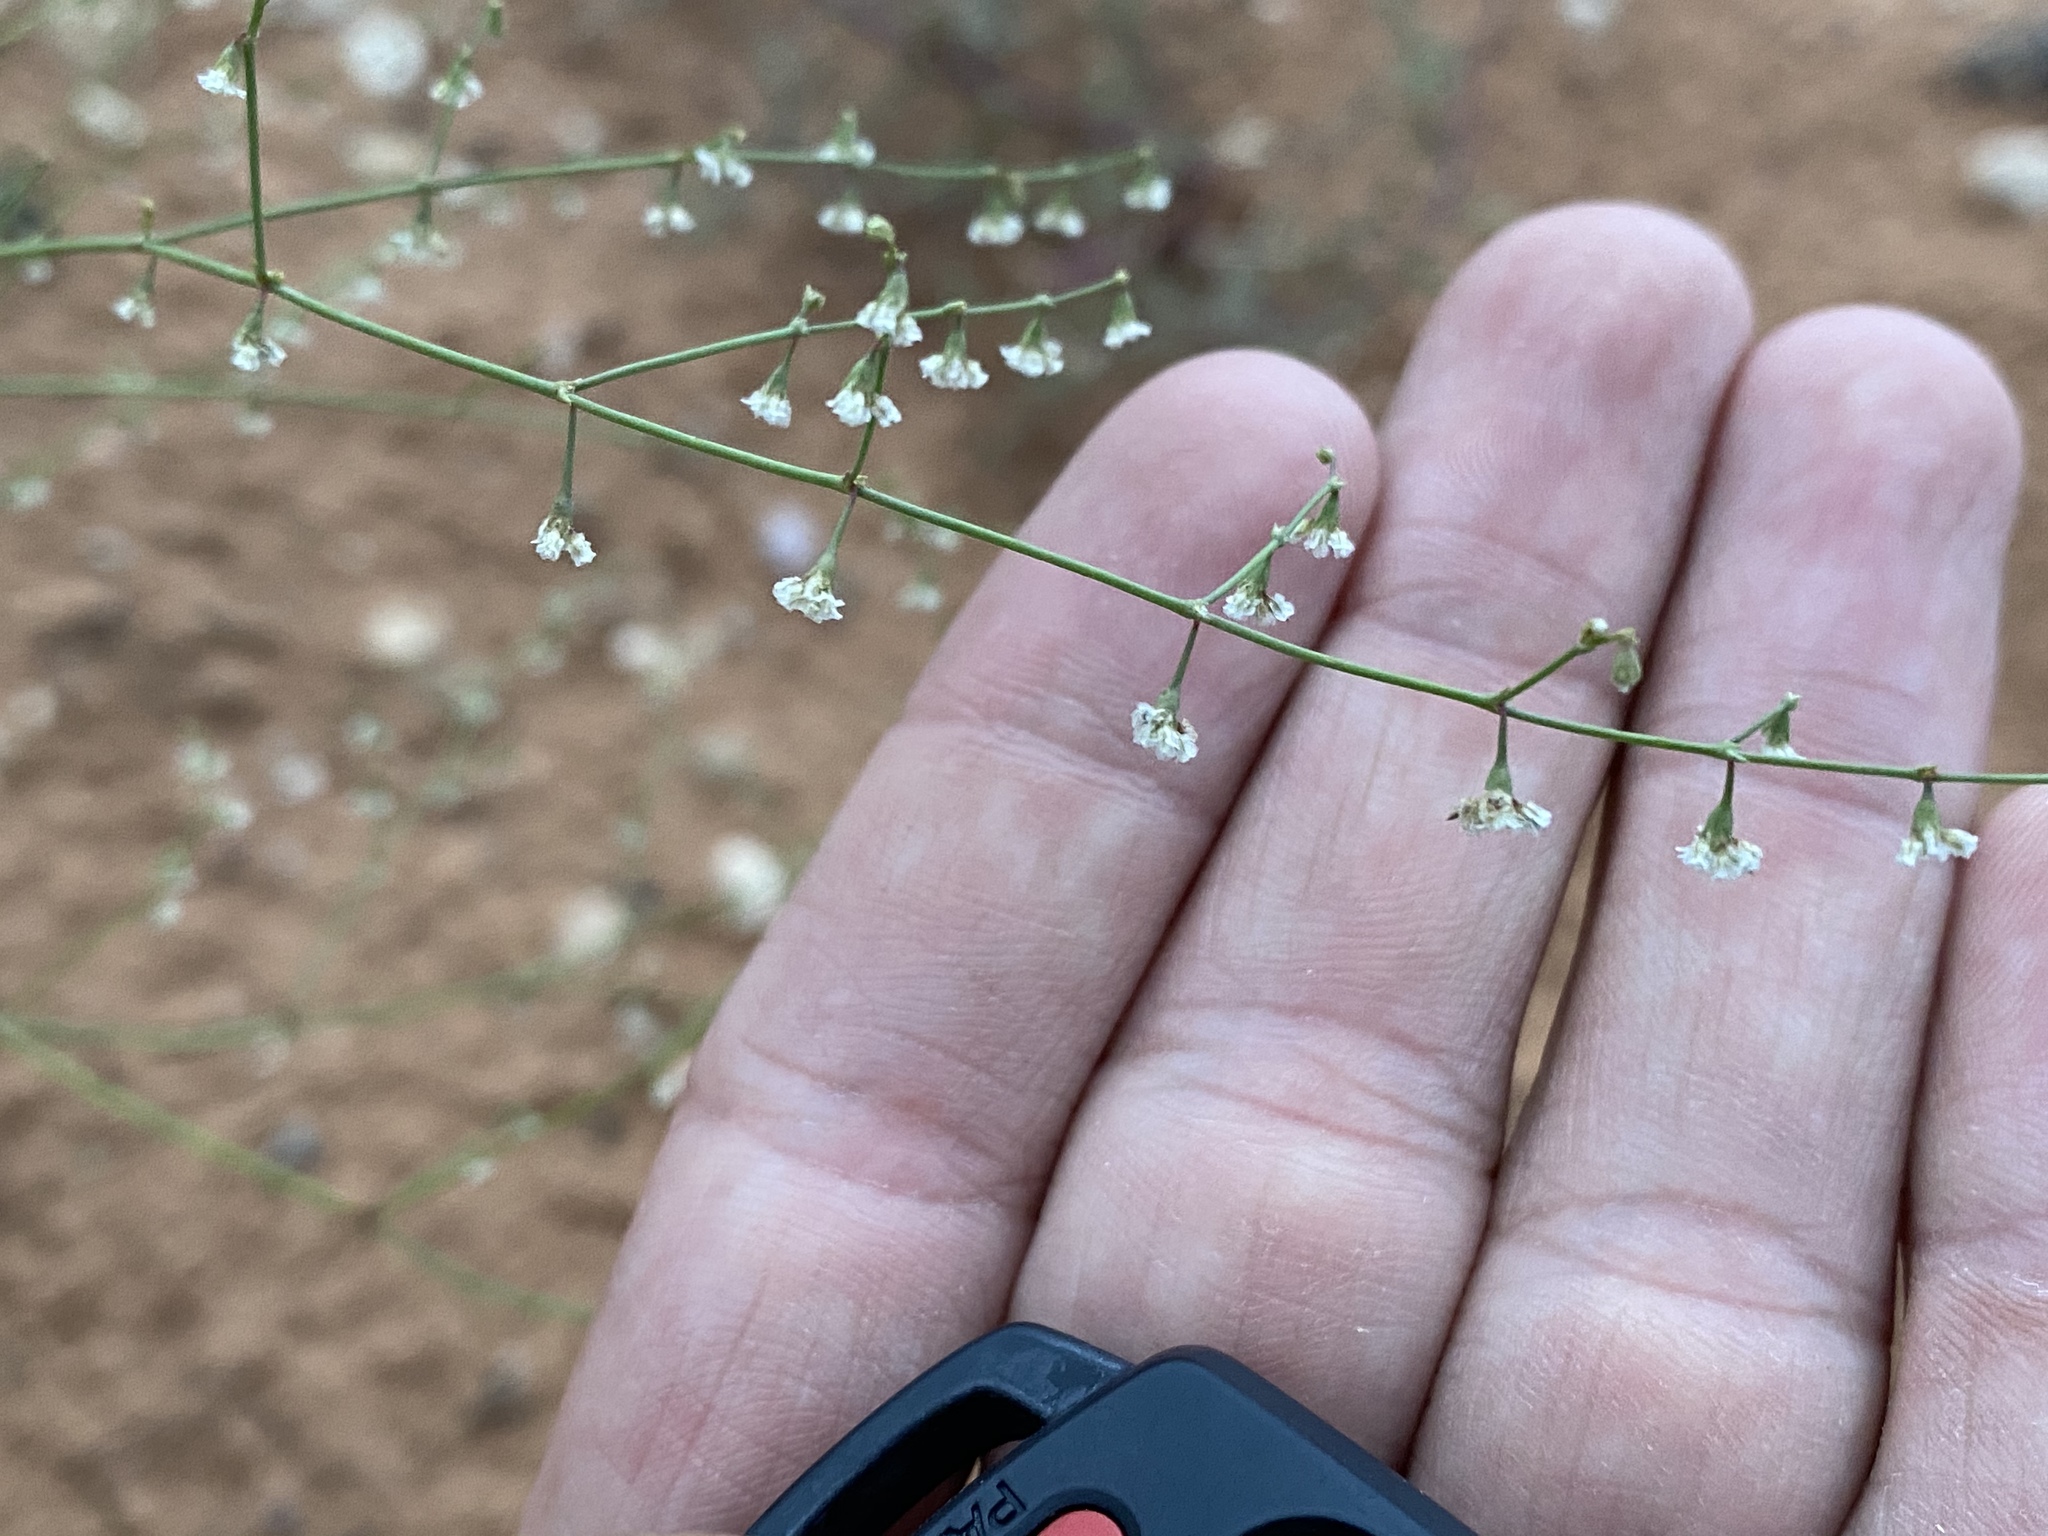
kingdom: Plantae
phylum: Tracheophyta
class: Magnoliopsida
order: Caryophyllales
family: Polygonaceae
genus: Eriogonum
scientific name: Eriogonum cernuum
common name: Nodding wild buckwheat
